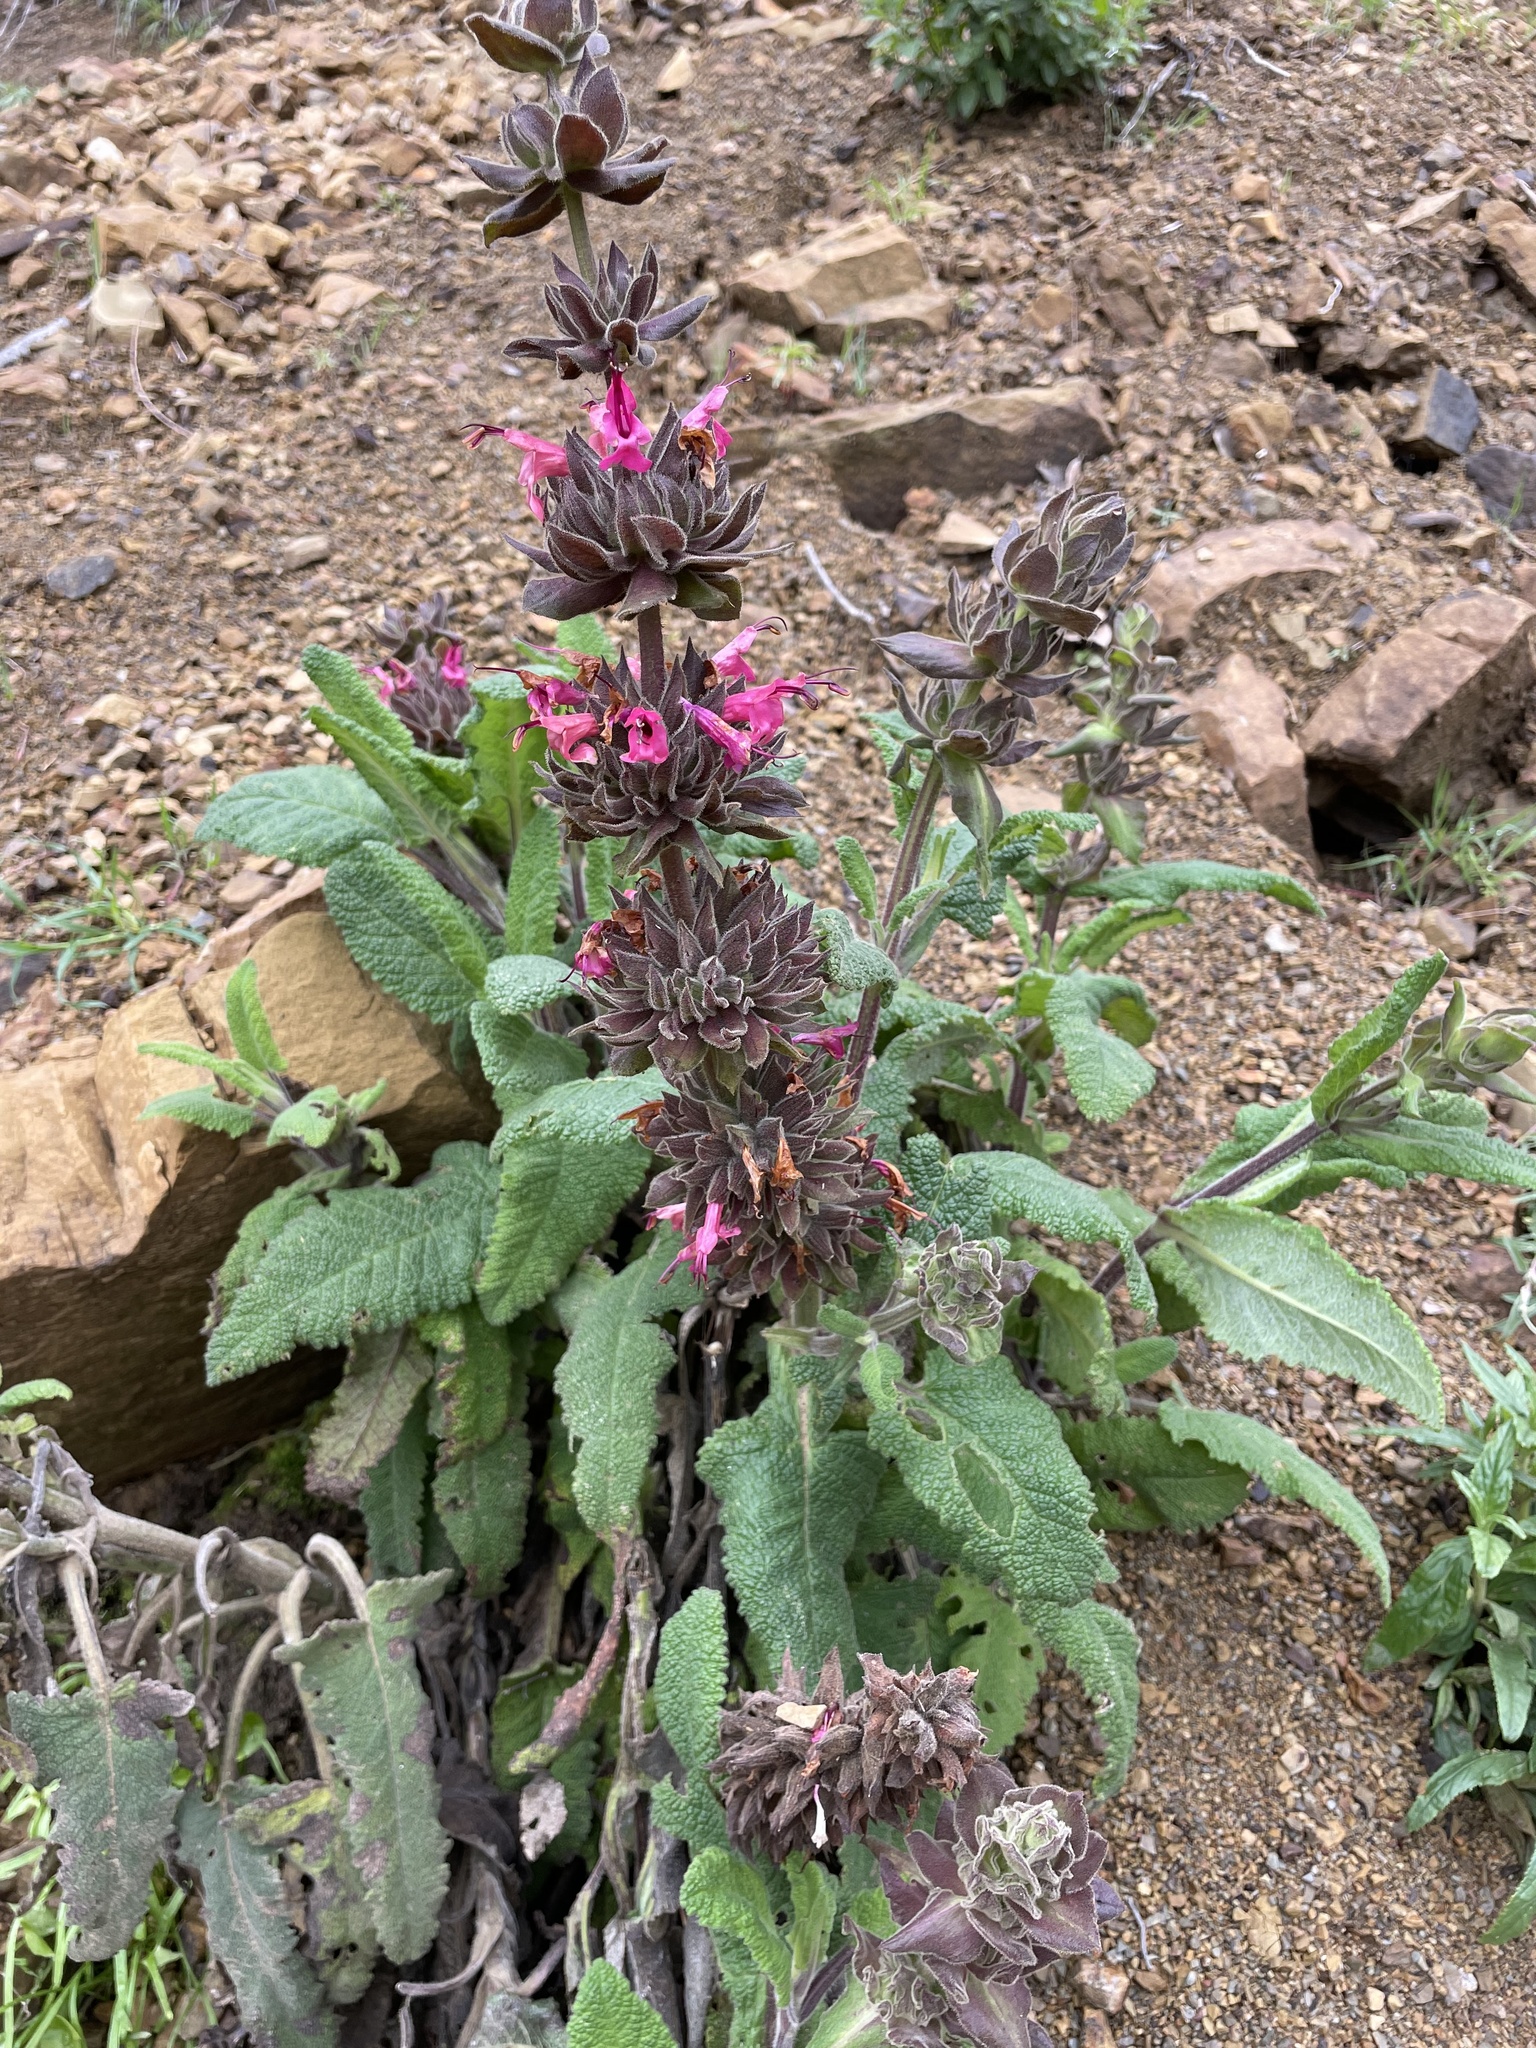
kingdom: Plantae
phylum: Tracheophyta
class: Magnoliopsida
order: Lamiales
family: Lamiaceae
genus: Salvia
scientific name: Salvia spathacea
